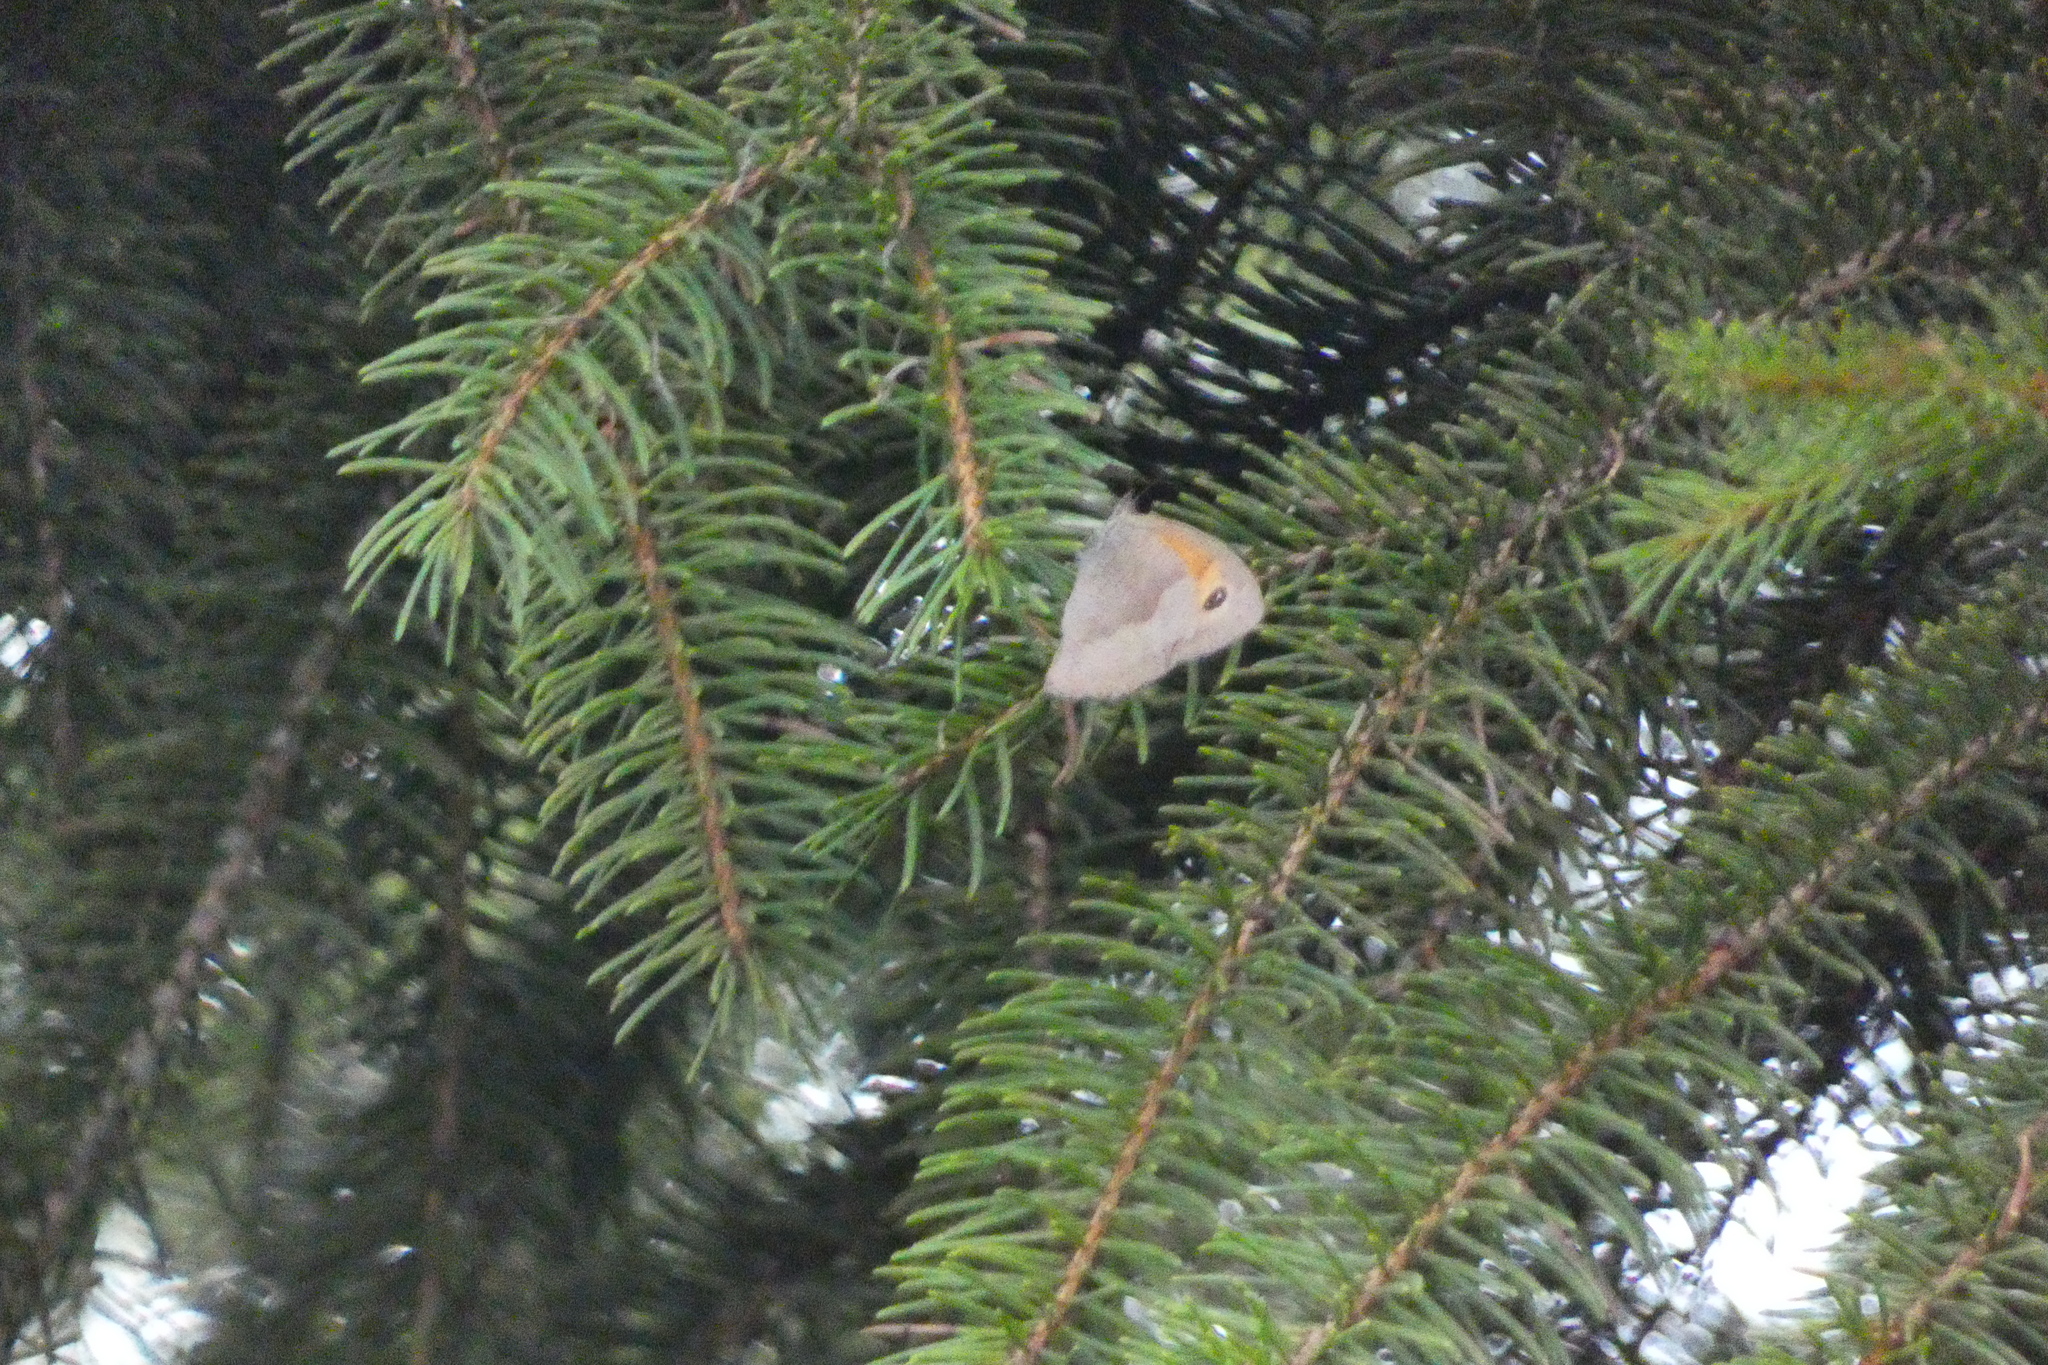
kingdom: Animalia
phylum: Arthropoda
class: Insecta
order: Lepidoptera
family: Nymphalidae
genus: Maniola
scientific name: Maniola jurtina
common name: Meadow brown
